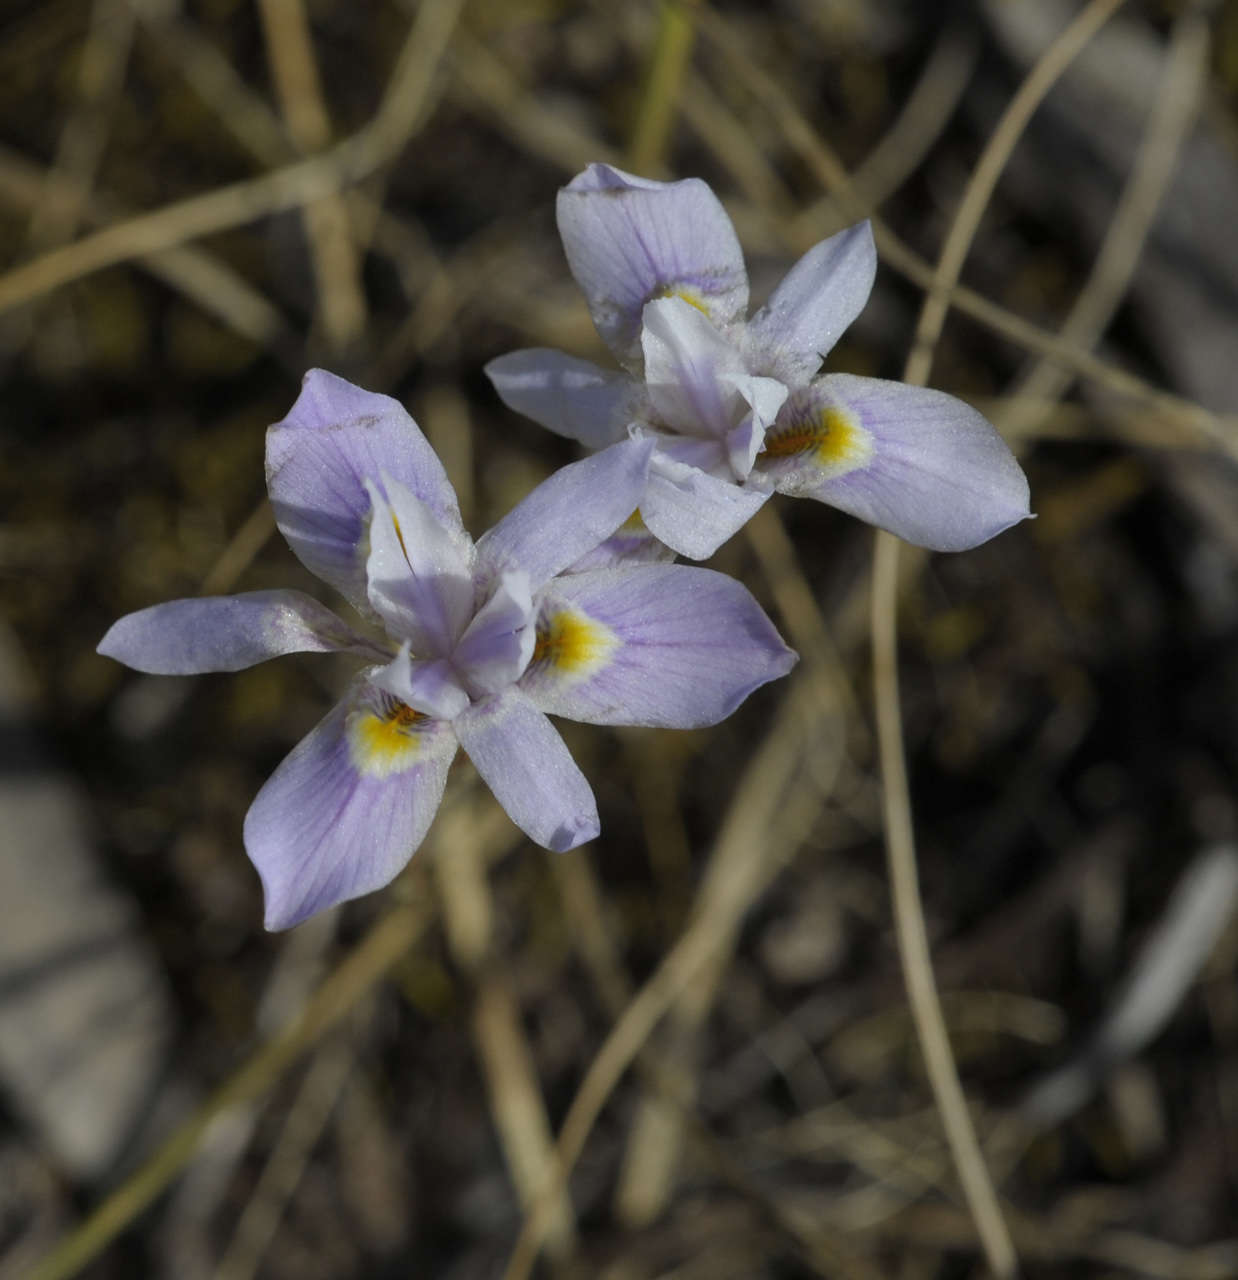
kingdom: Plantae
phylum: Tracheophyta
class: Liliopsida
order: Asparagales
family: Iridaceae
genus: Moraea
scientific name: Moraea setifolia
